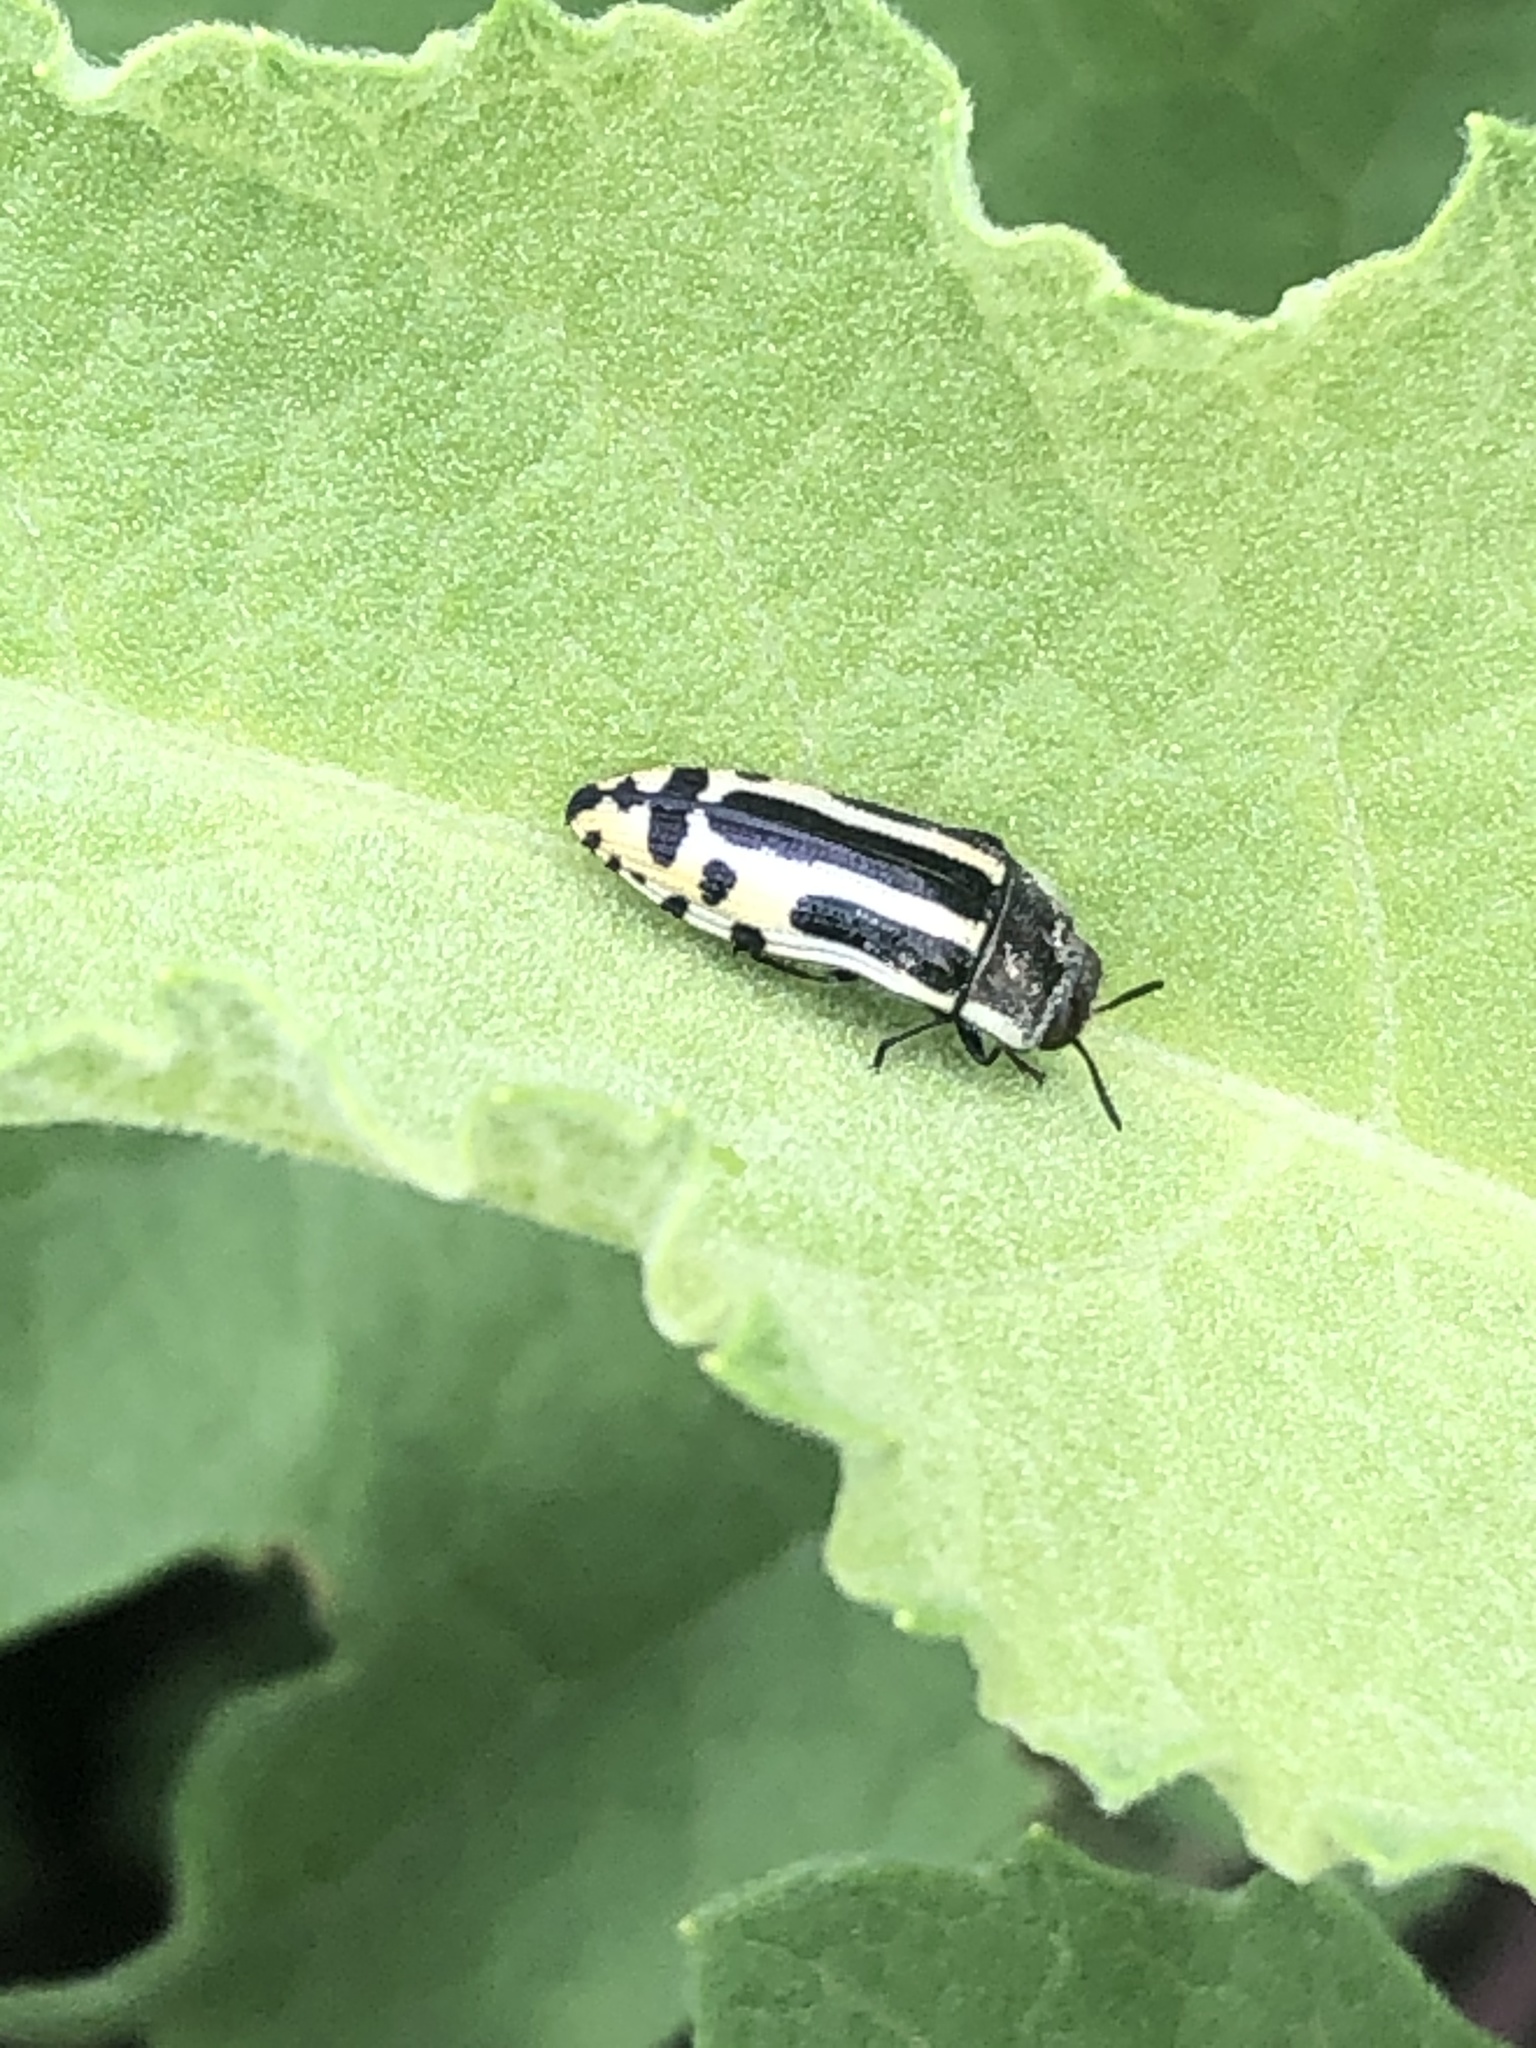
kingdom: Animalia
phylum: Arthropoda
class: Insecta
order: Coleoptera
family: Buprestidae
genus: Acmaeodera
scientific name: Acmaeodera scalaris
